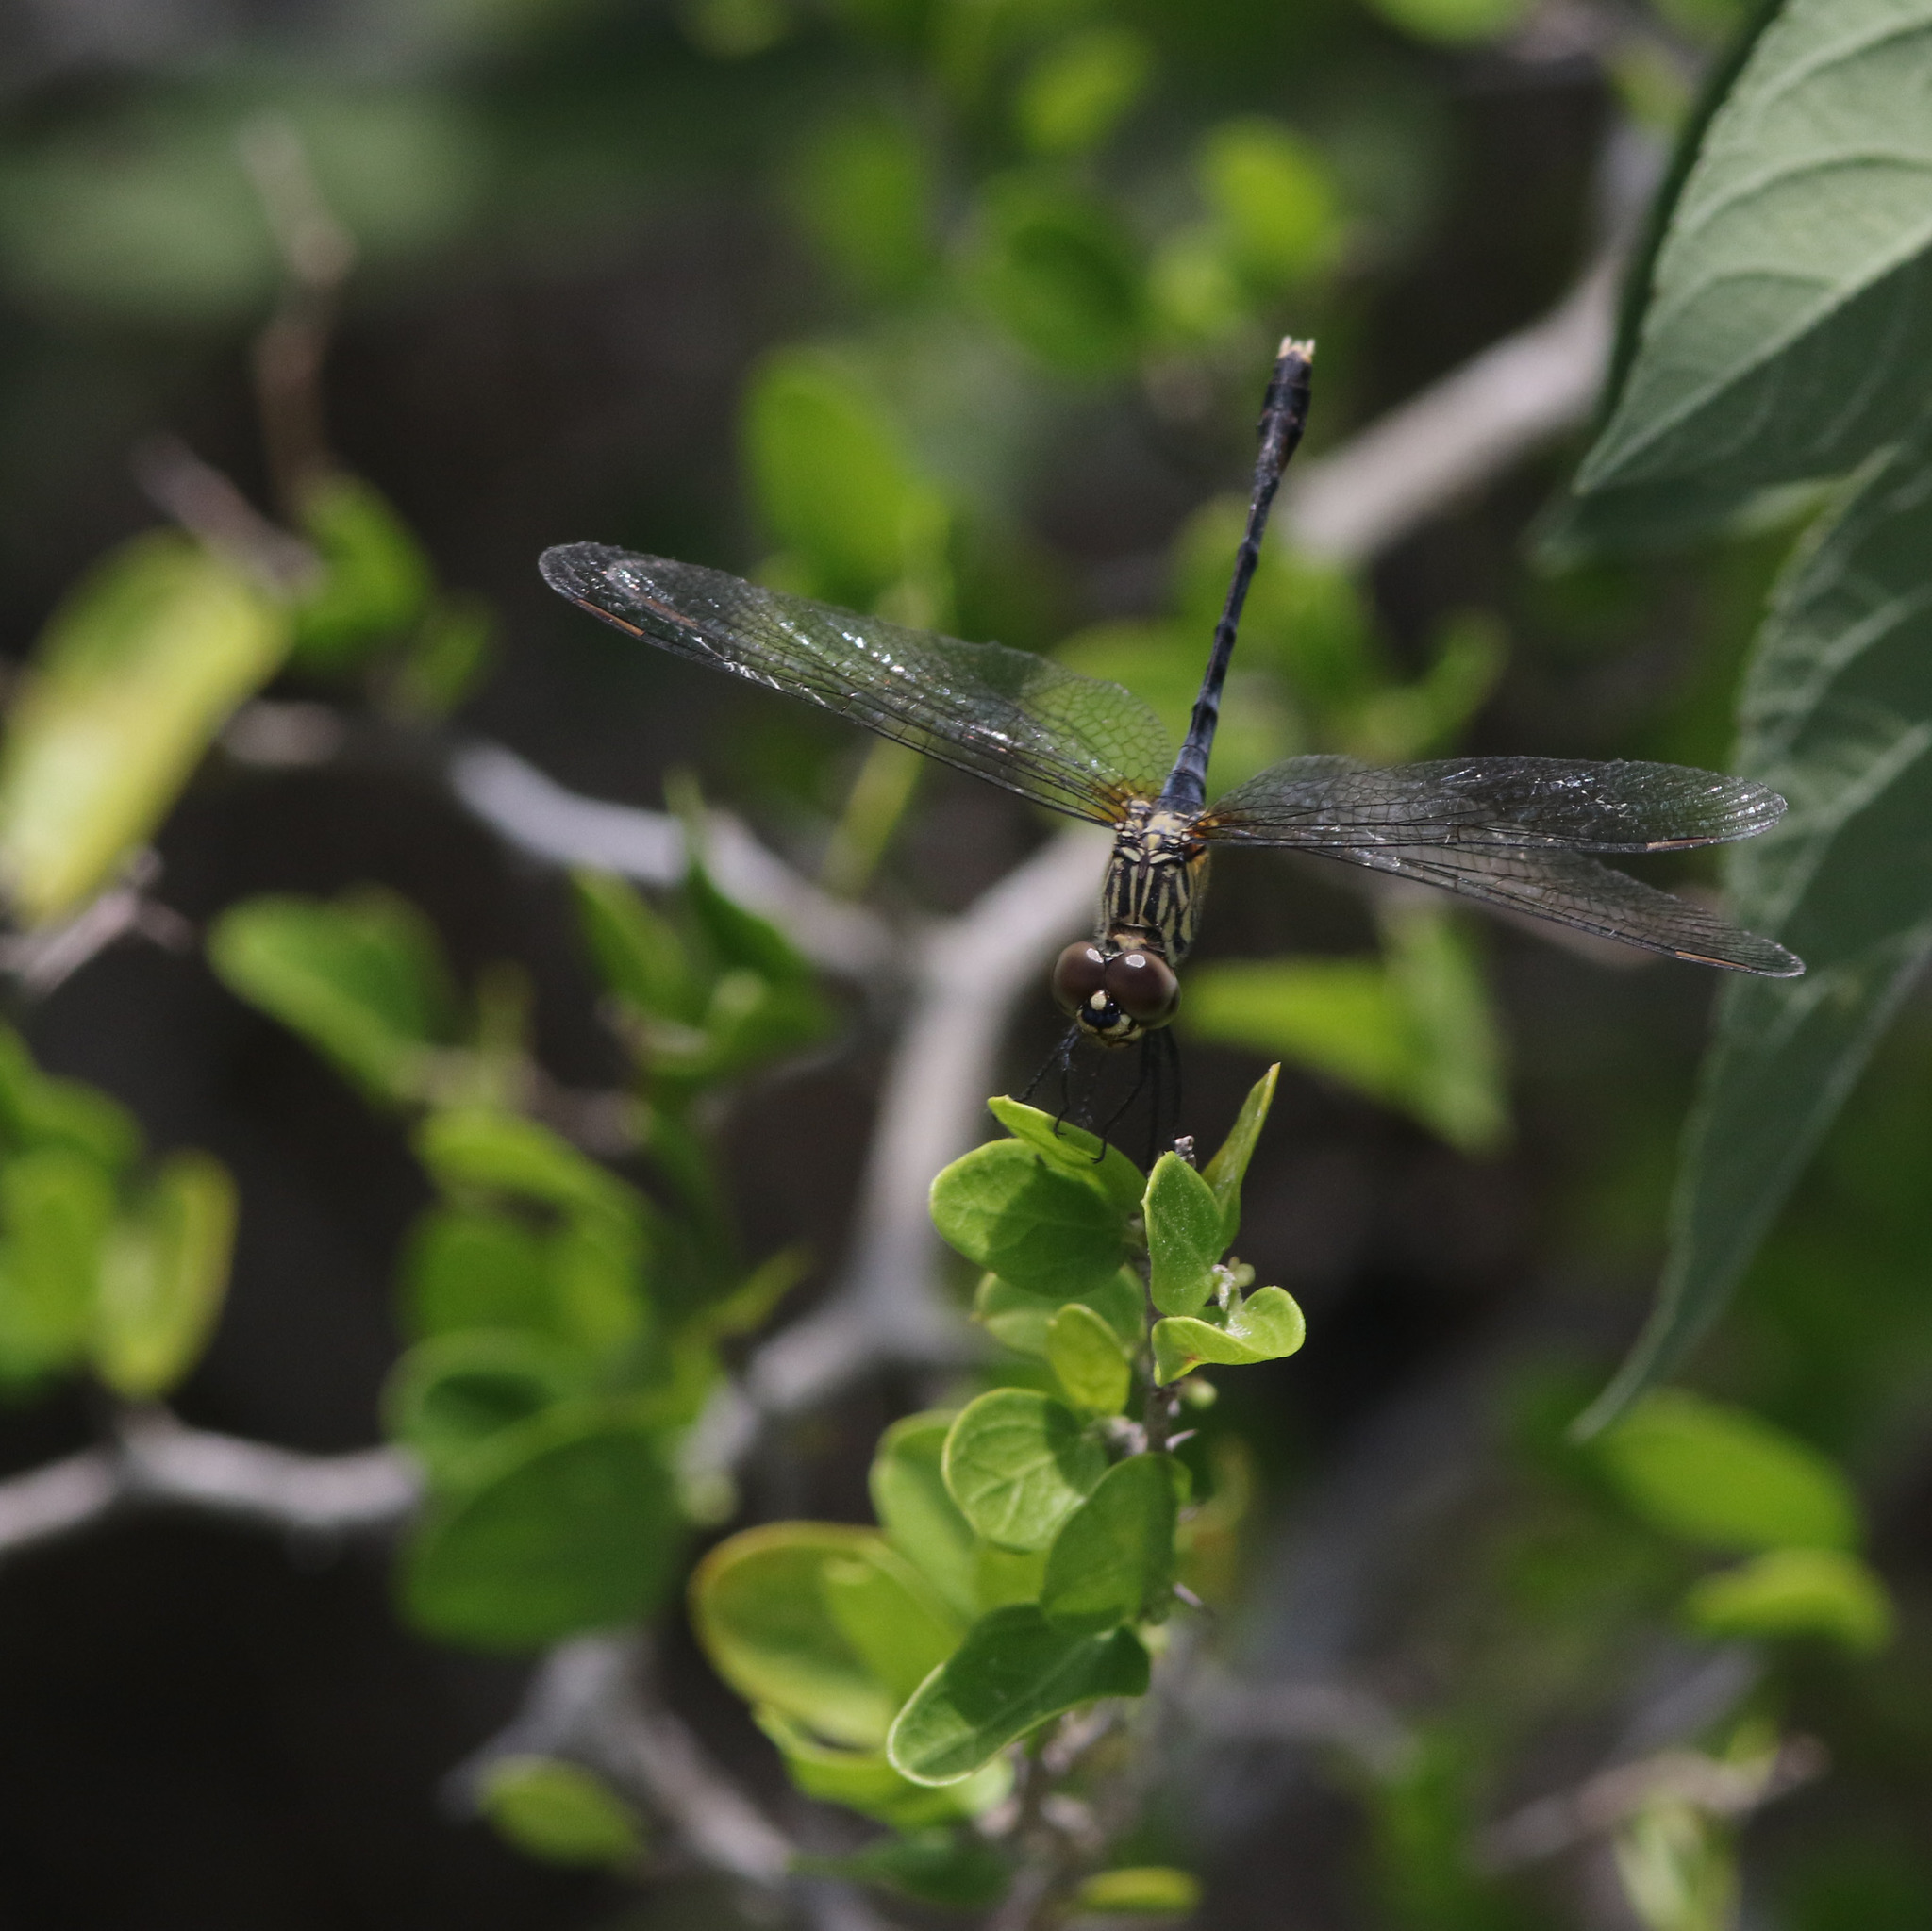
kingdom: Animalia
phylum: Arthropoda
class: Insecta
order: Odonata
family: Libellulidae
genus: Erythrodiplax
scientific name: Erythrodiplax berenice
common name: Seaside dragonlet
